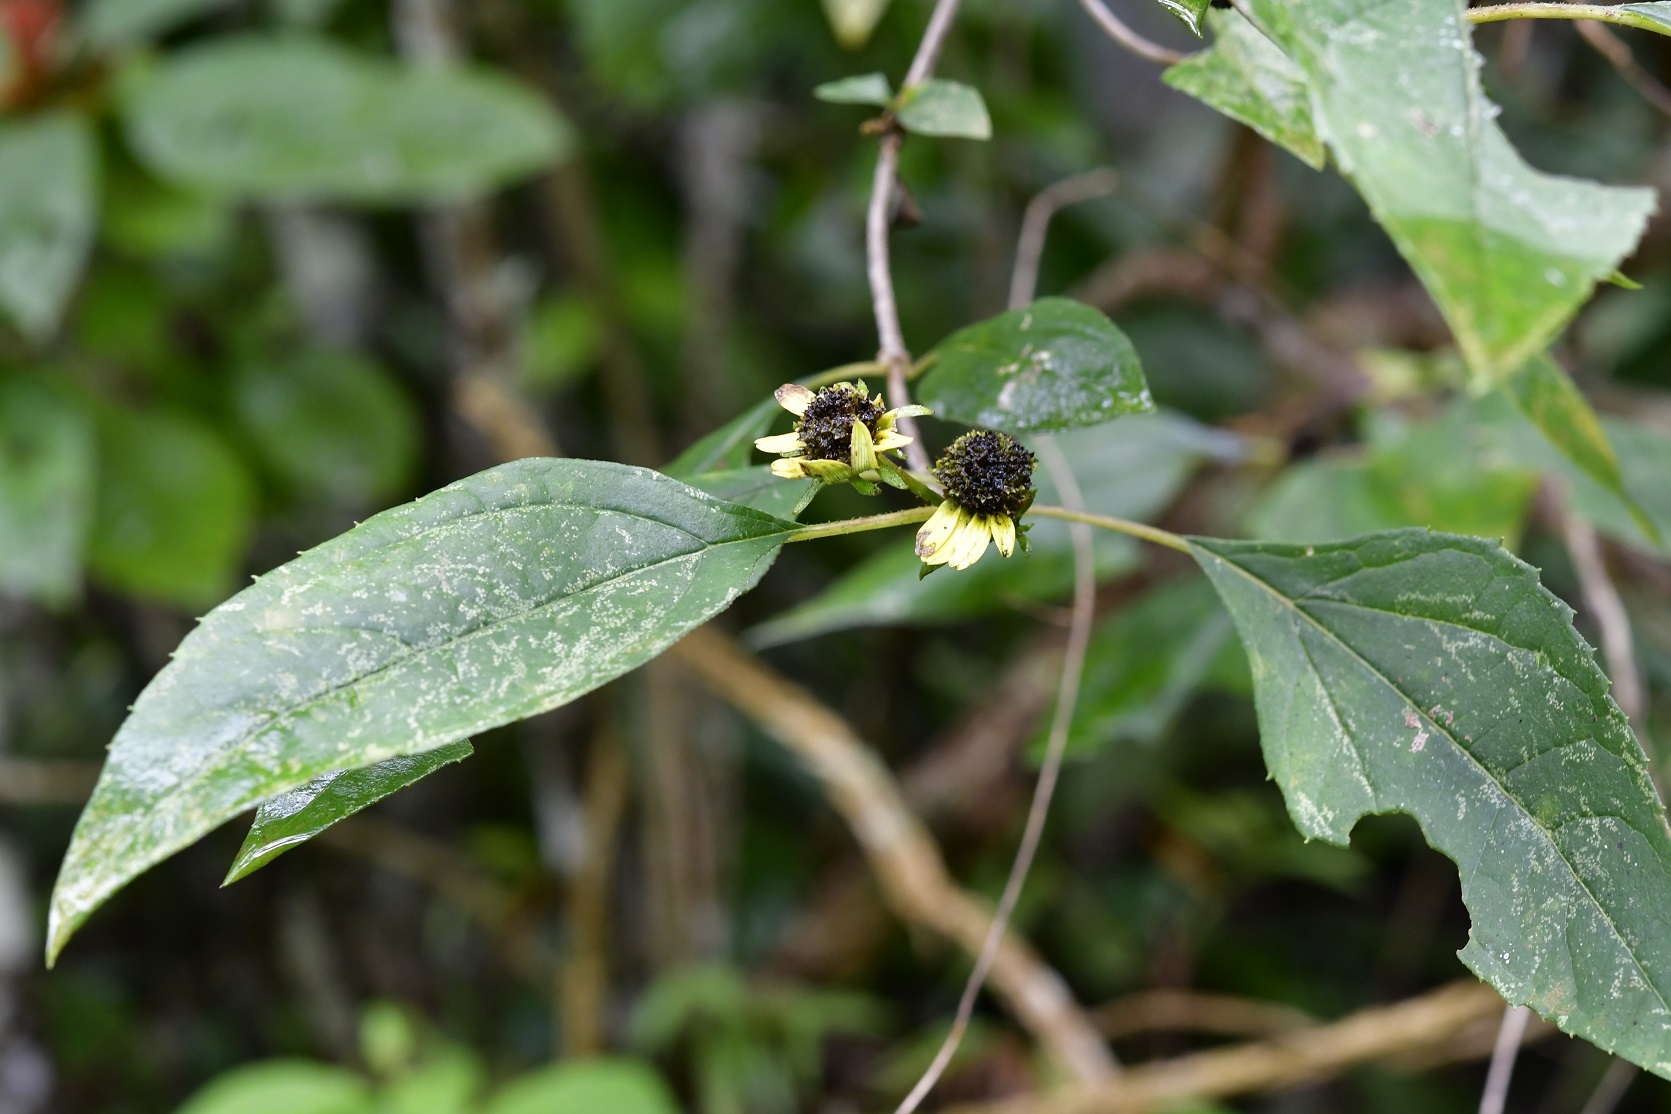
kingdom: Plantae
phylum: Tracheophyta
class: Magnoliopsida
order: Asterales
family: Asteraceae
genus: Philactis
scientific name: Philactis zinnioides
